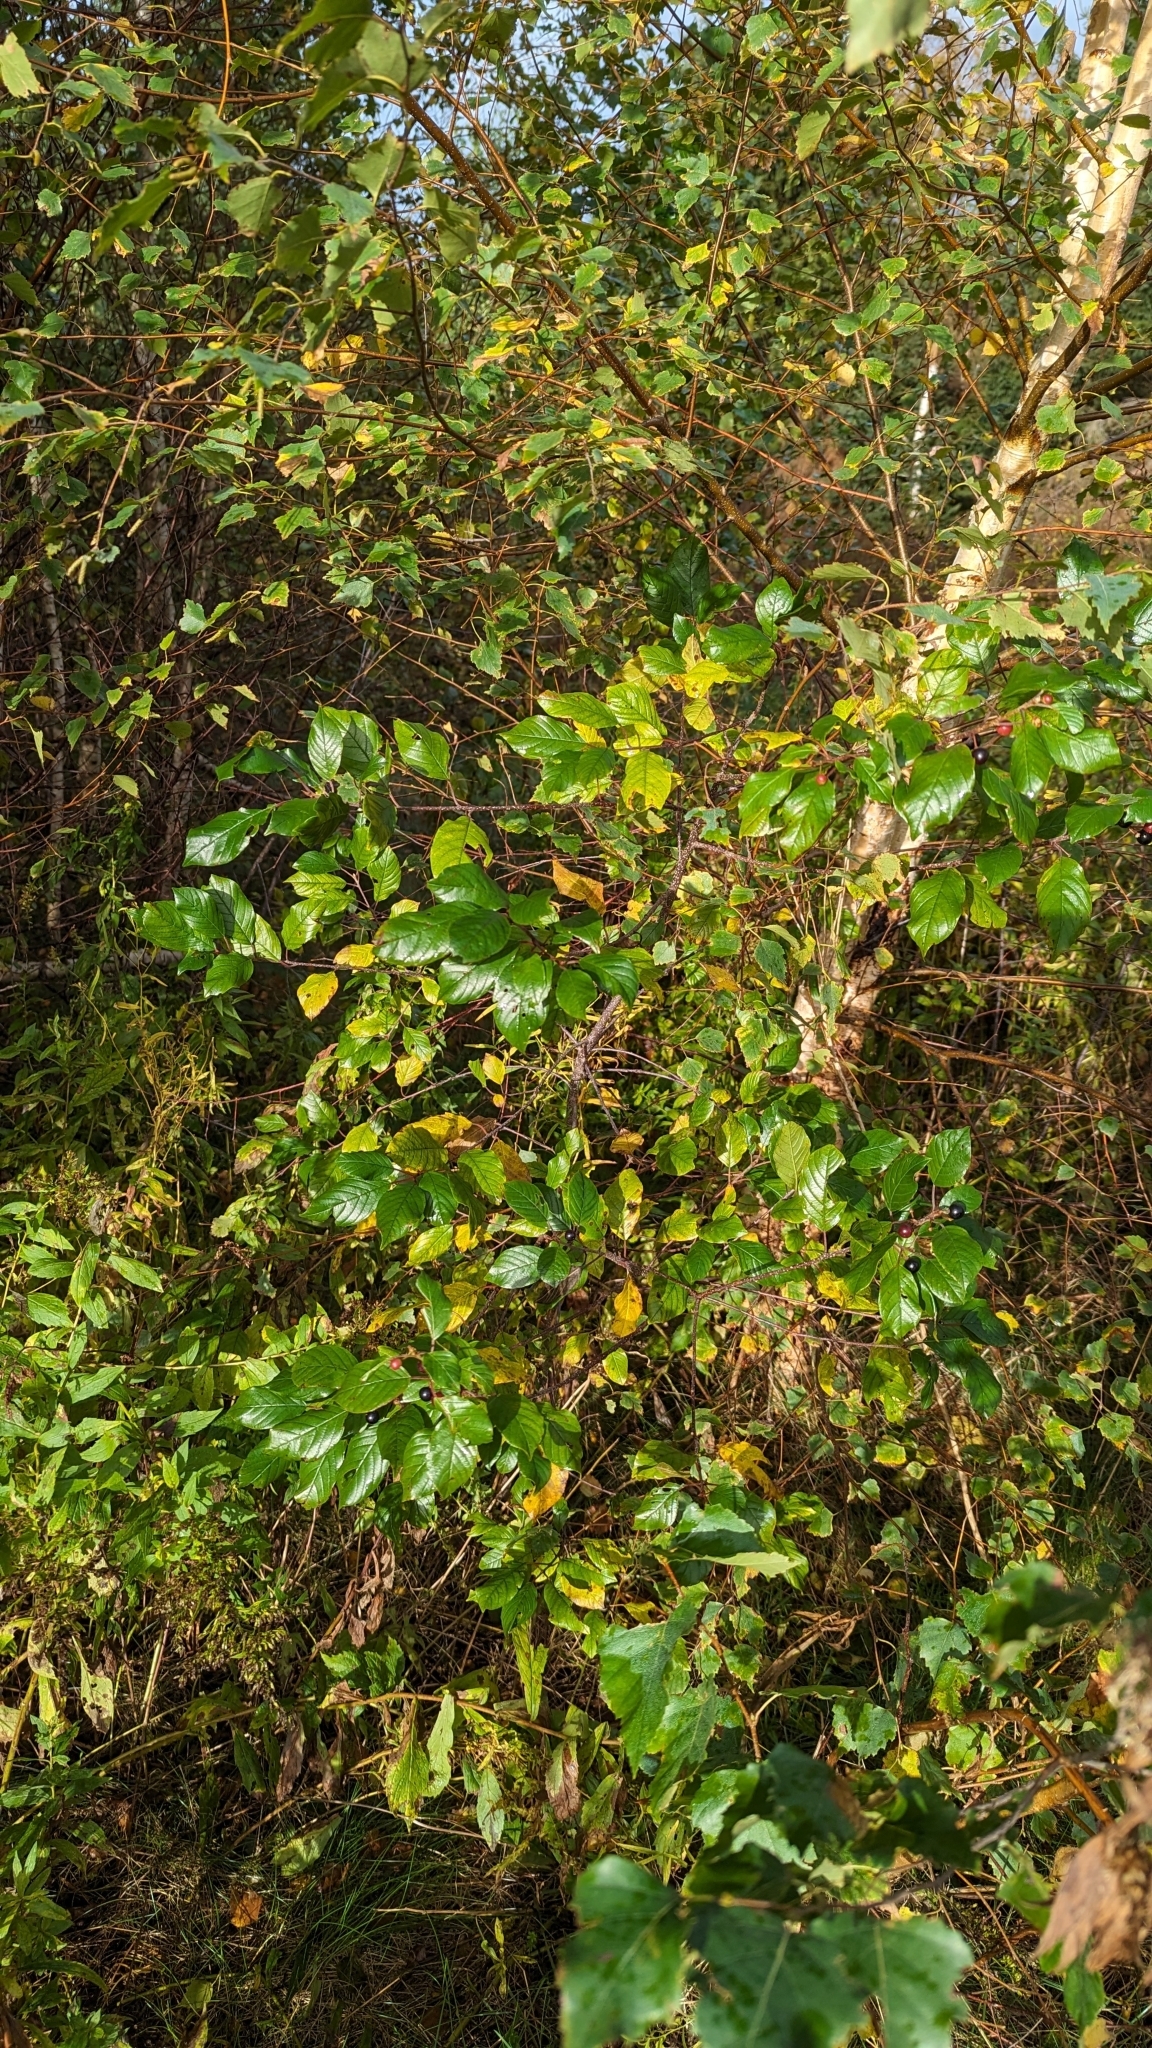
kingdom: Plantae
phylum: Tracheophyta
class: Magnoliopsida
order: Rosales
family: Rhamnaceae
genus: Frangula
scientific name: Frangula alnus
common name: Alder buckthorn
